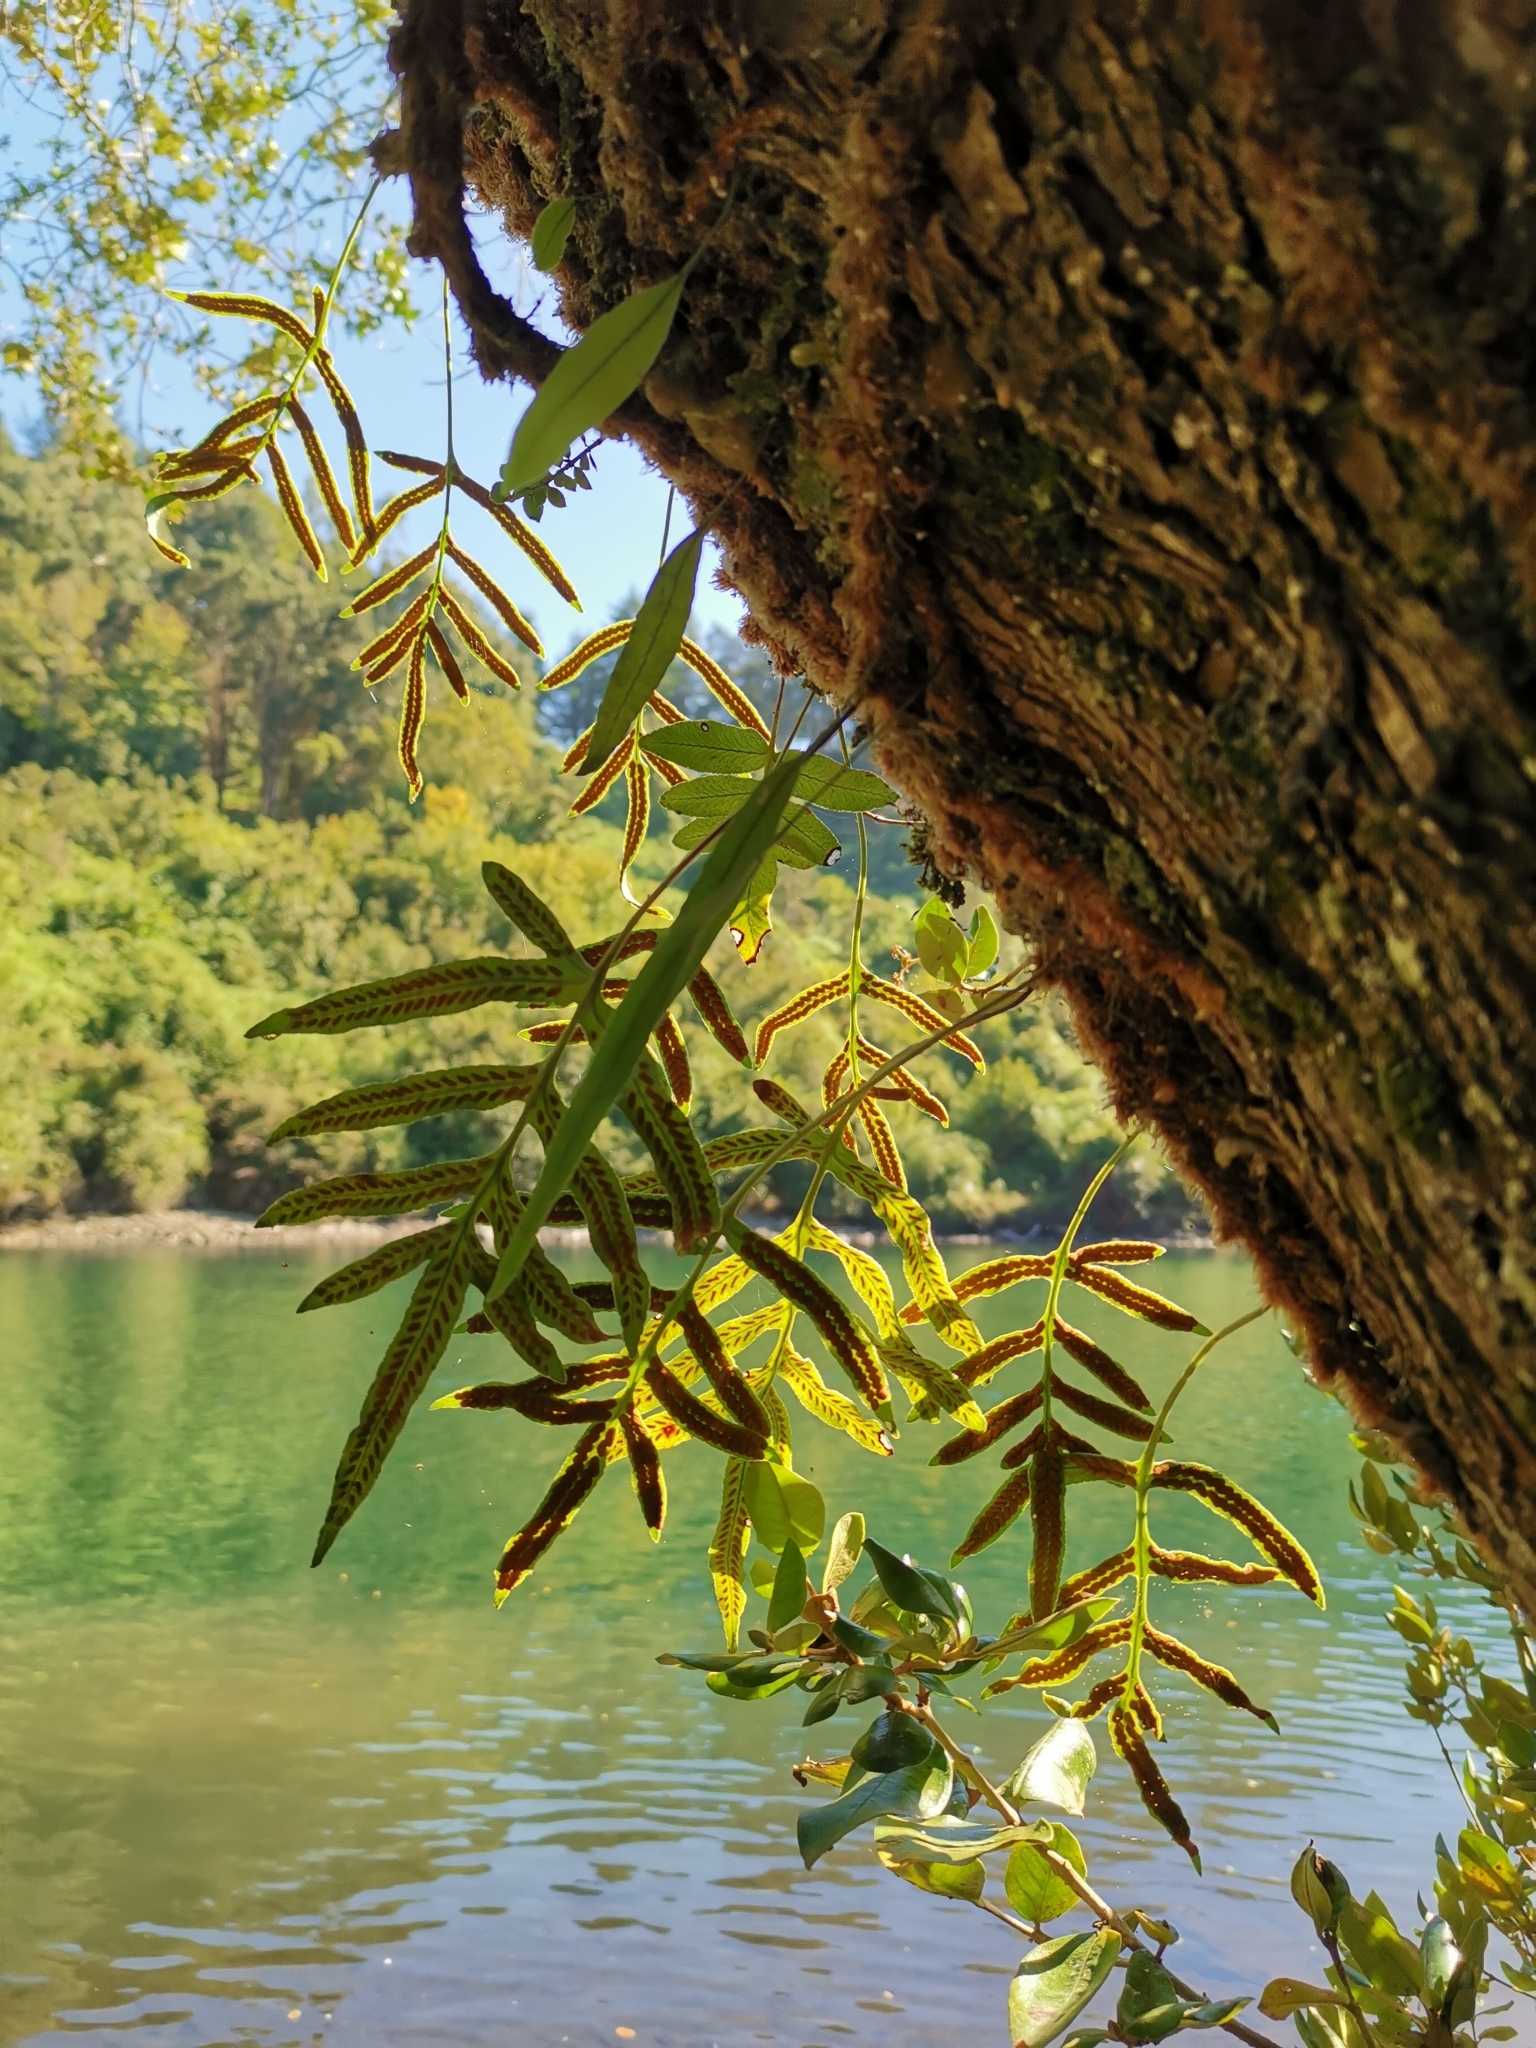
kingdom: Plantae
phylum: Tracheophyta
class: Polypodiopsida
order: Polypodiales
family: Polypodiaceae
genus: Synammia
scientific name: Synammia feuillei
